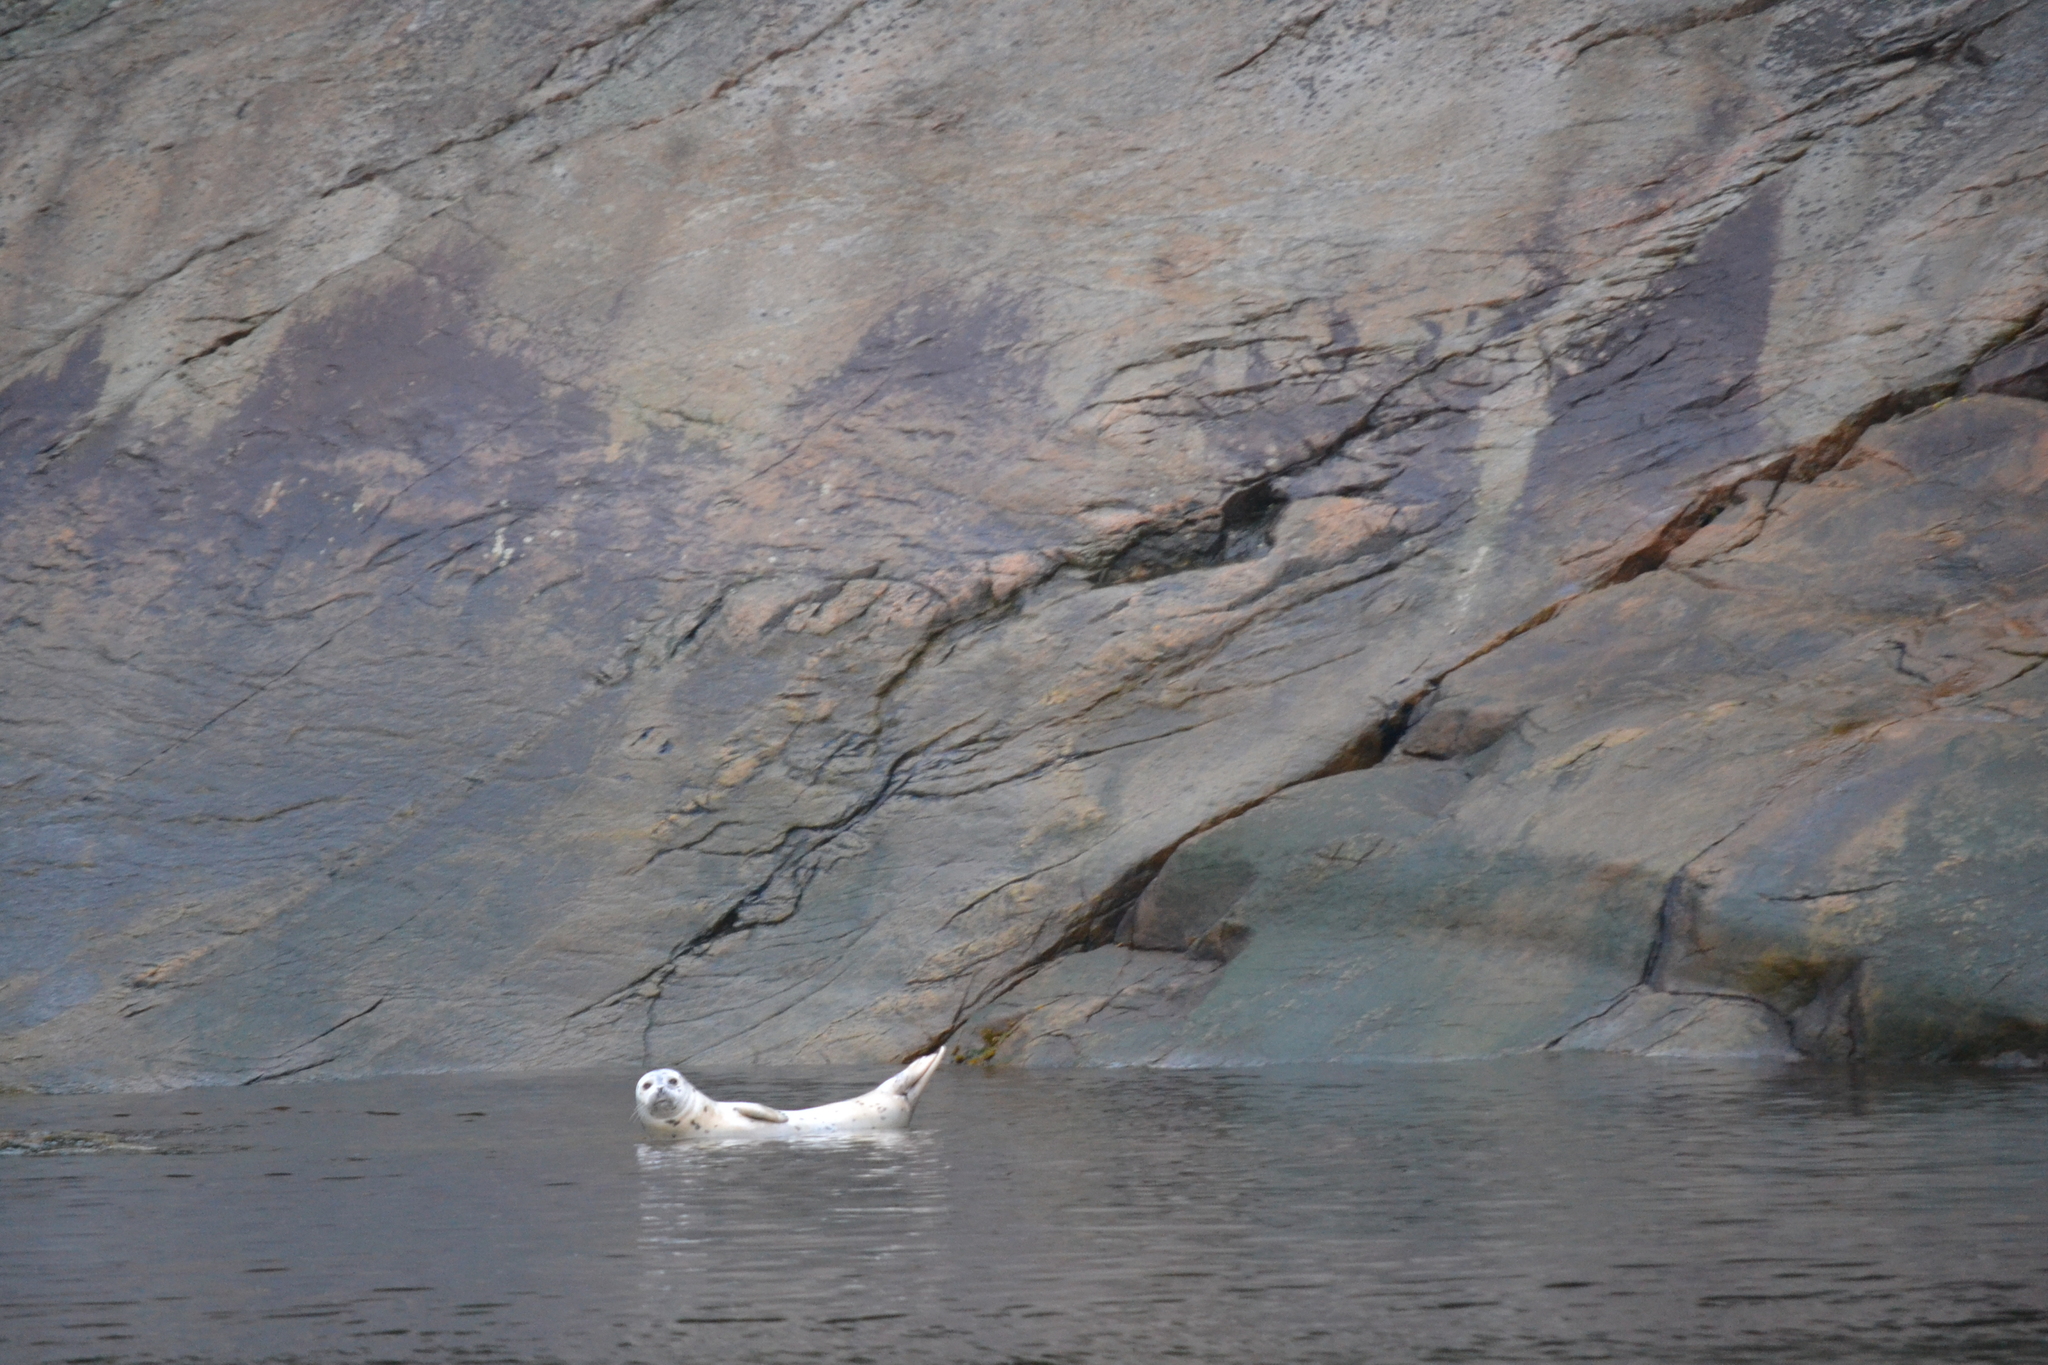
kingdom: Animalia
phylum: Chordata
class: Mammalia
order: Carnivora
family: Phocidae
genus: Phoca
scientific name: Phoca vitulina
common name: Harbor seal
